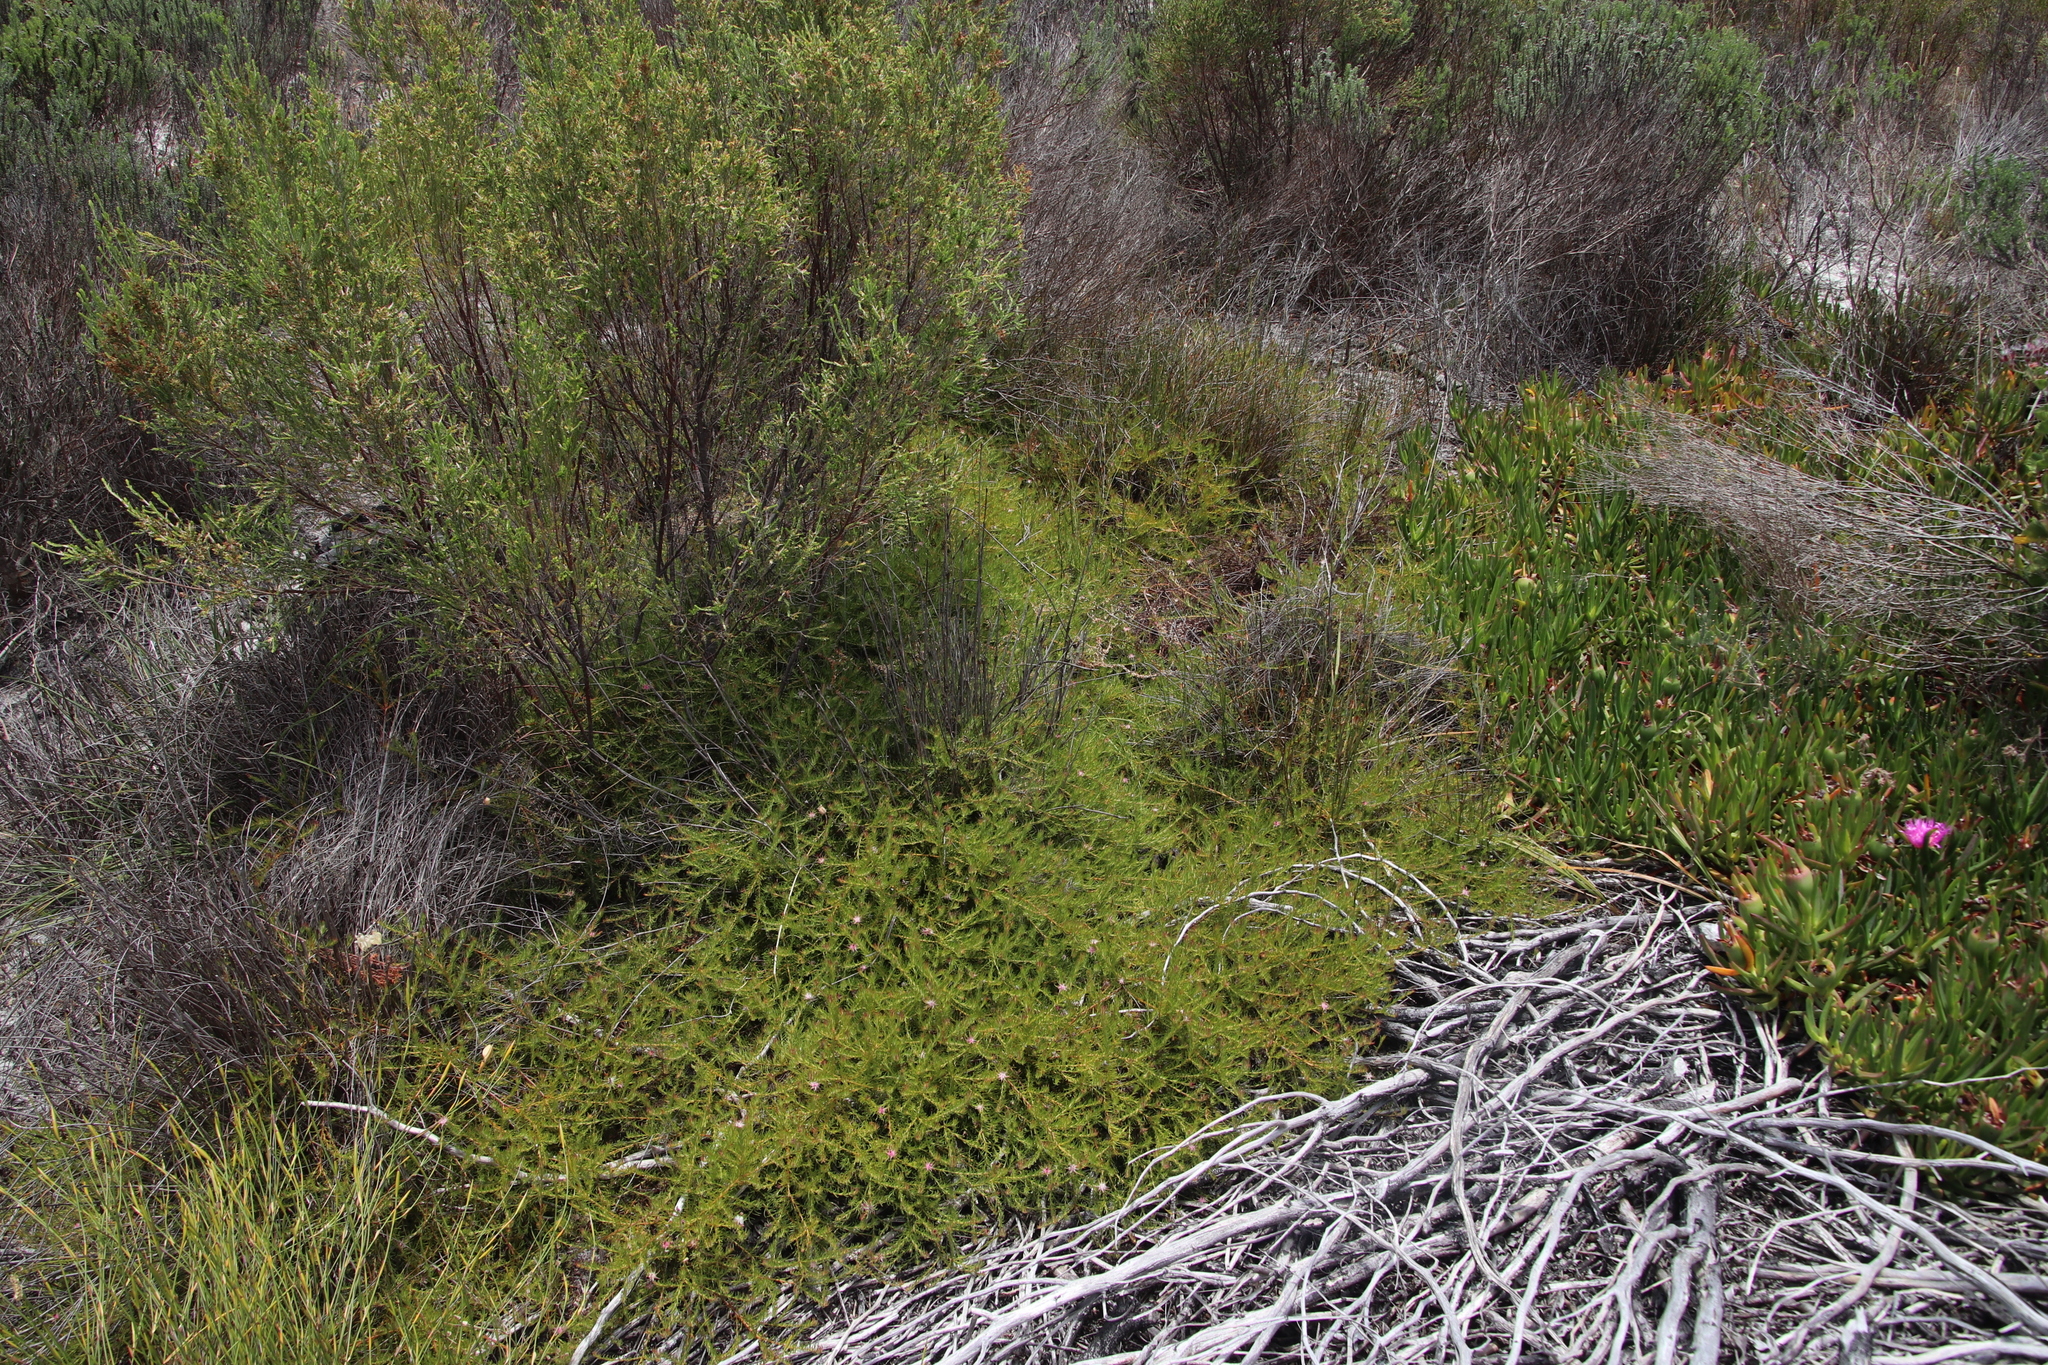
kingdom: Plantae
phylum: Tracheophyta
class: Magnoliopsida
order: Proteales
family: Proteaceae
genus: Diastella
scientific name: Diastella proteoides
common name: Flats silkypuff
